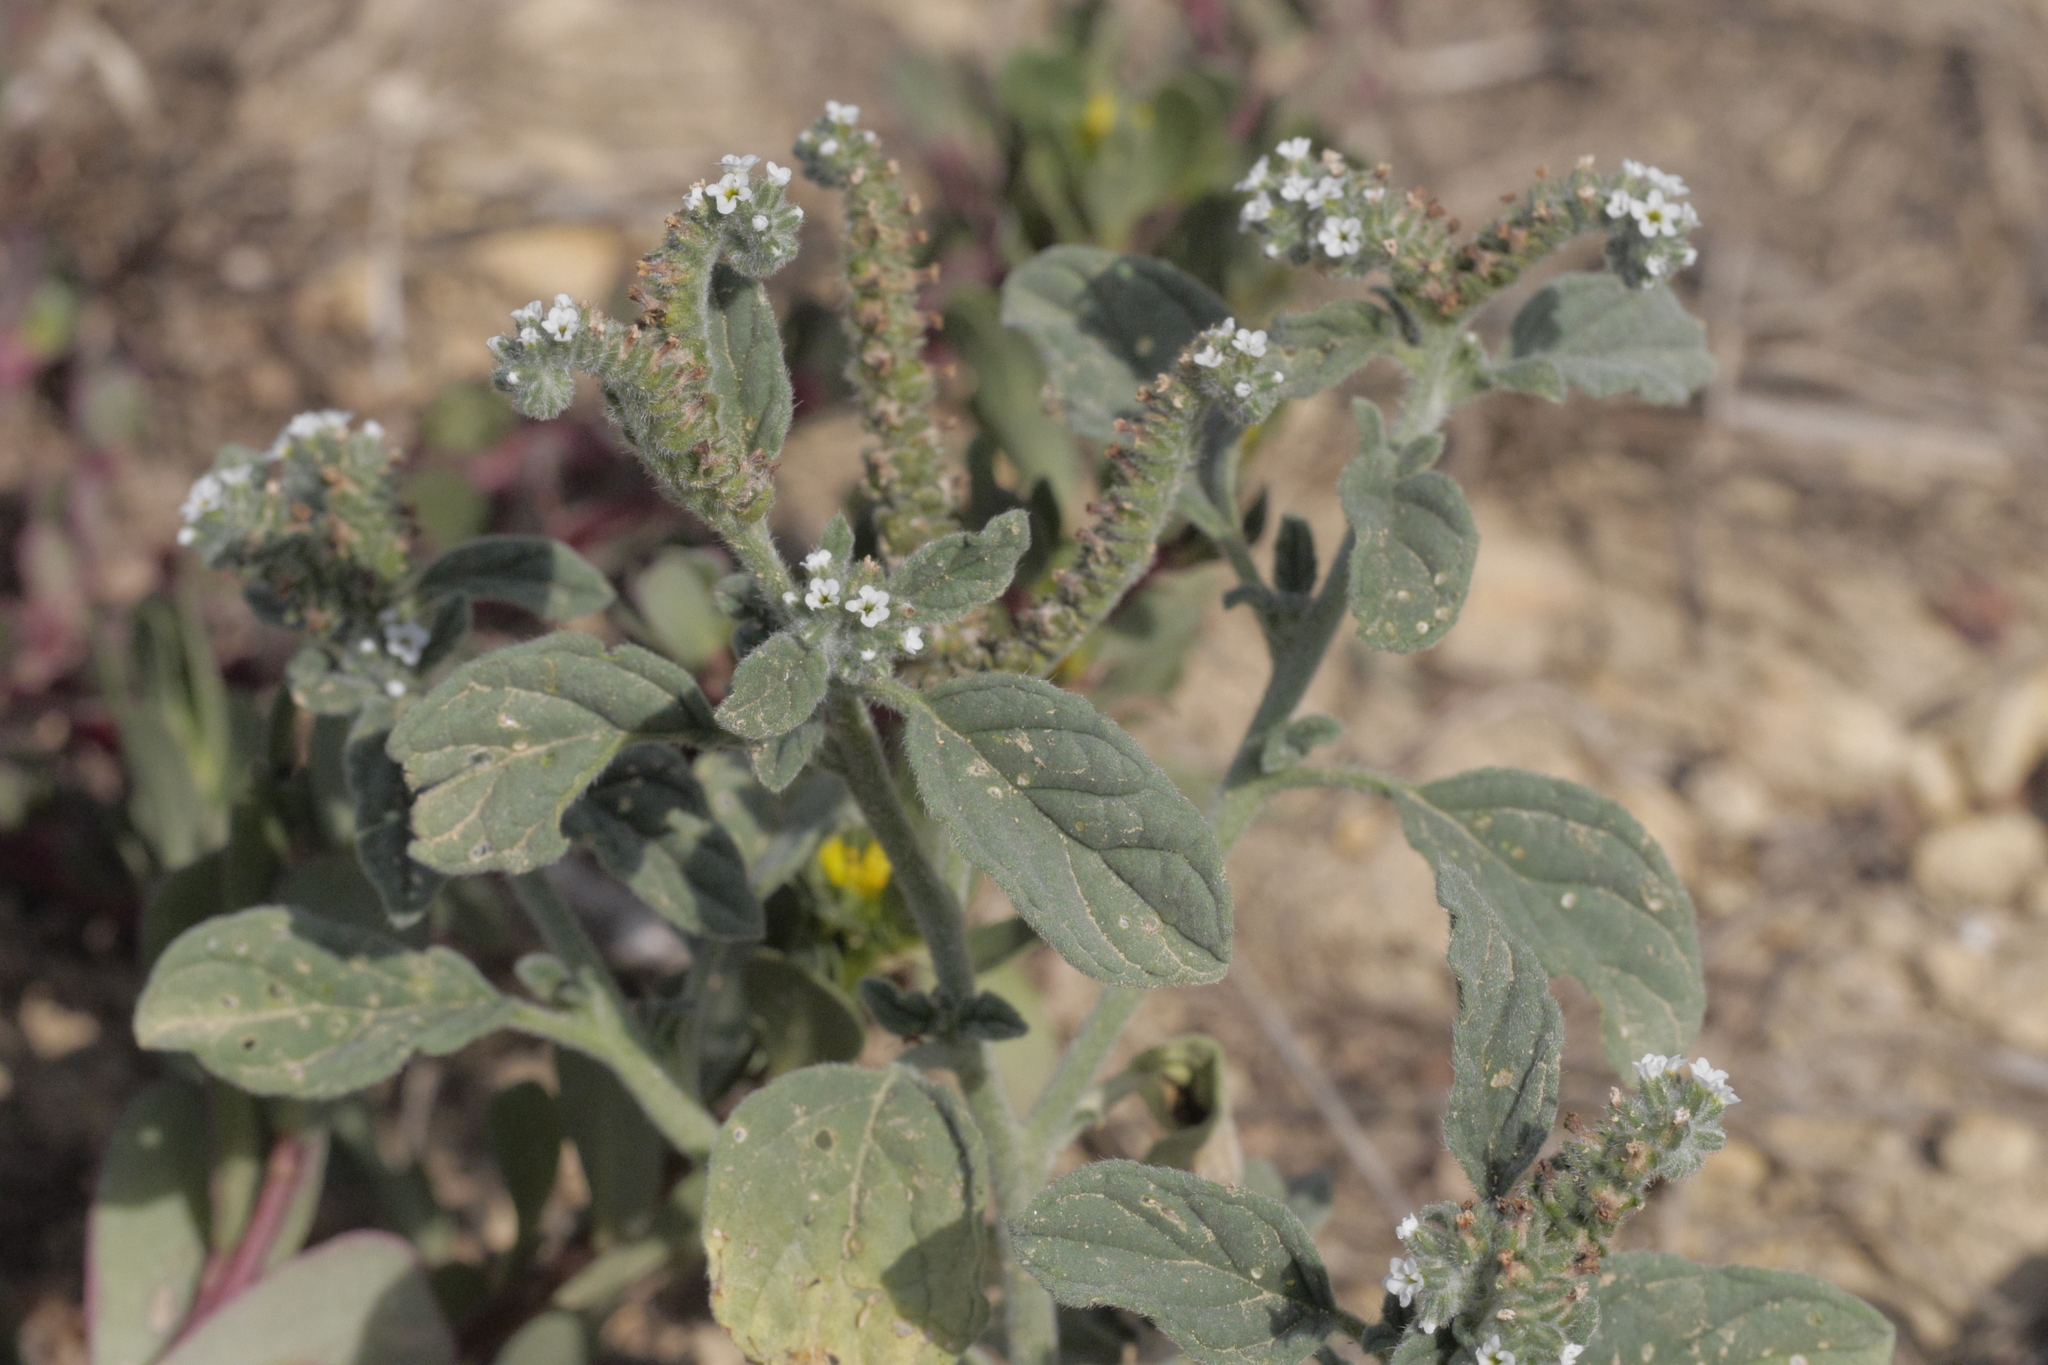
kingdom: Plantae
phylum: Tracheophyta
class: Magnoliopsida
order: Boraginales
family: Heliotropiaceae
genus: Heliotropium
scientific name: Heliotropium europaeum
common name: European heliotrope
